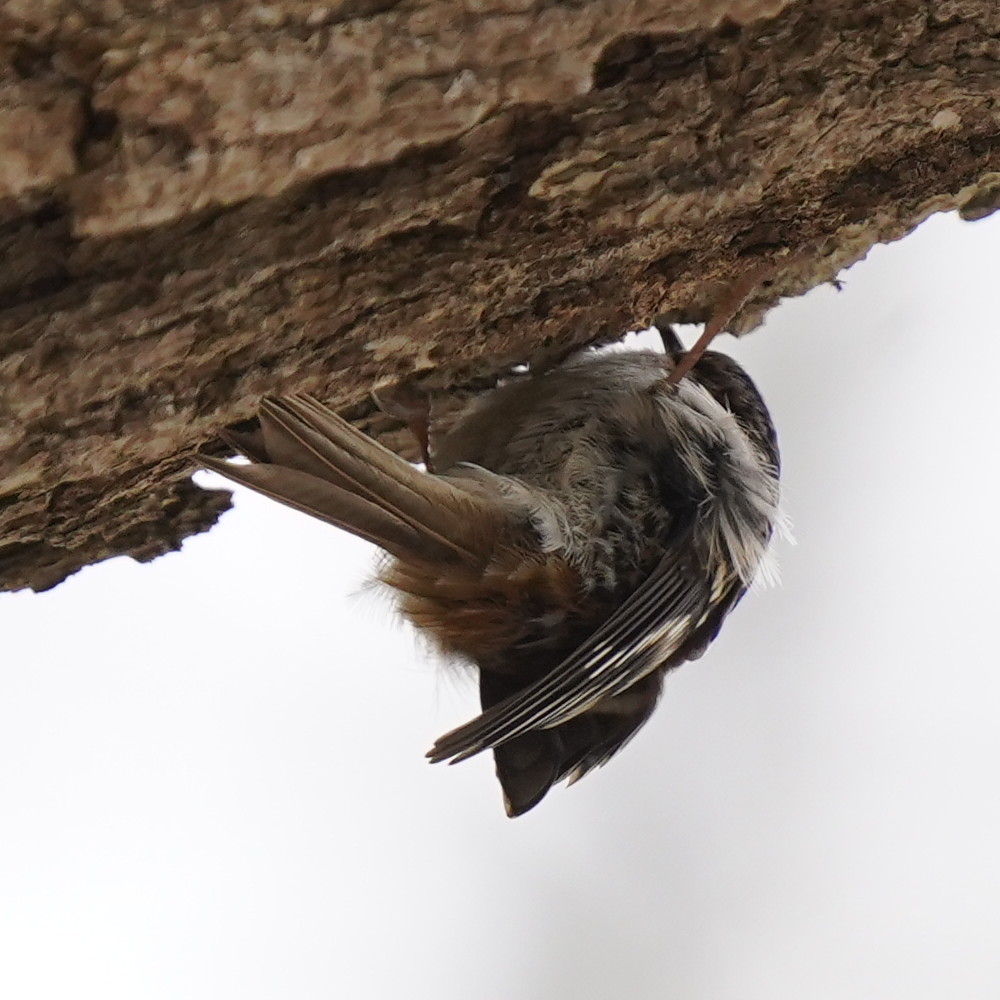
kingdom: Animalia
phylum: Chordata
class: Aves
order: Passeriformes
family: Certhiidae
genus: Certhia
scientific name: Certhia americana
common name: Brown creeper
